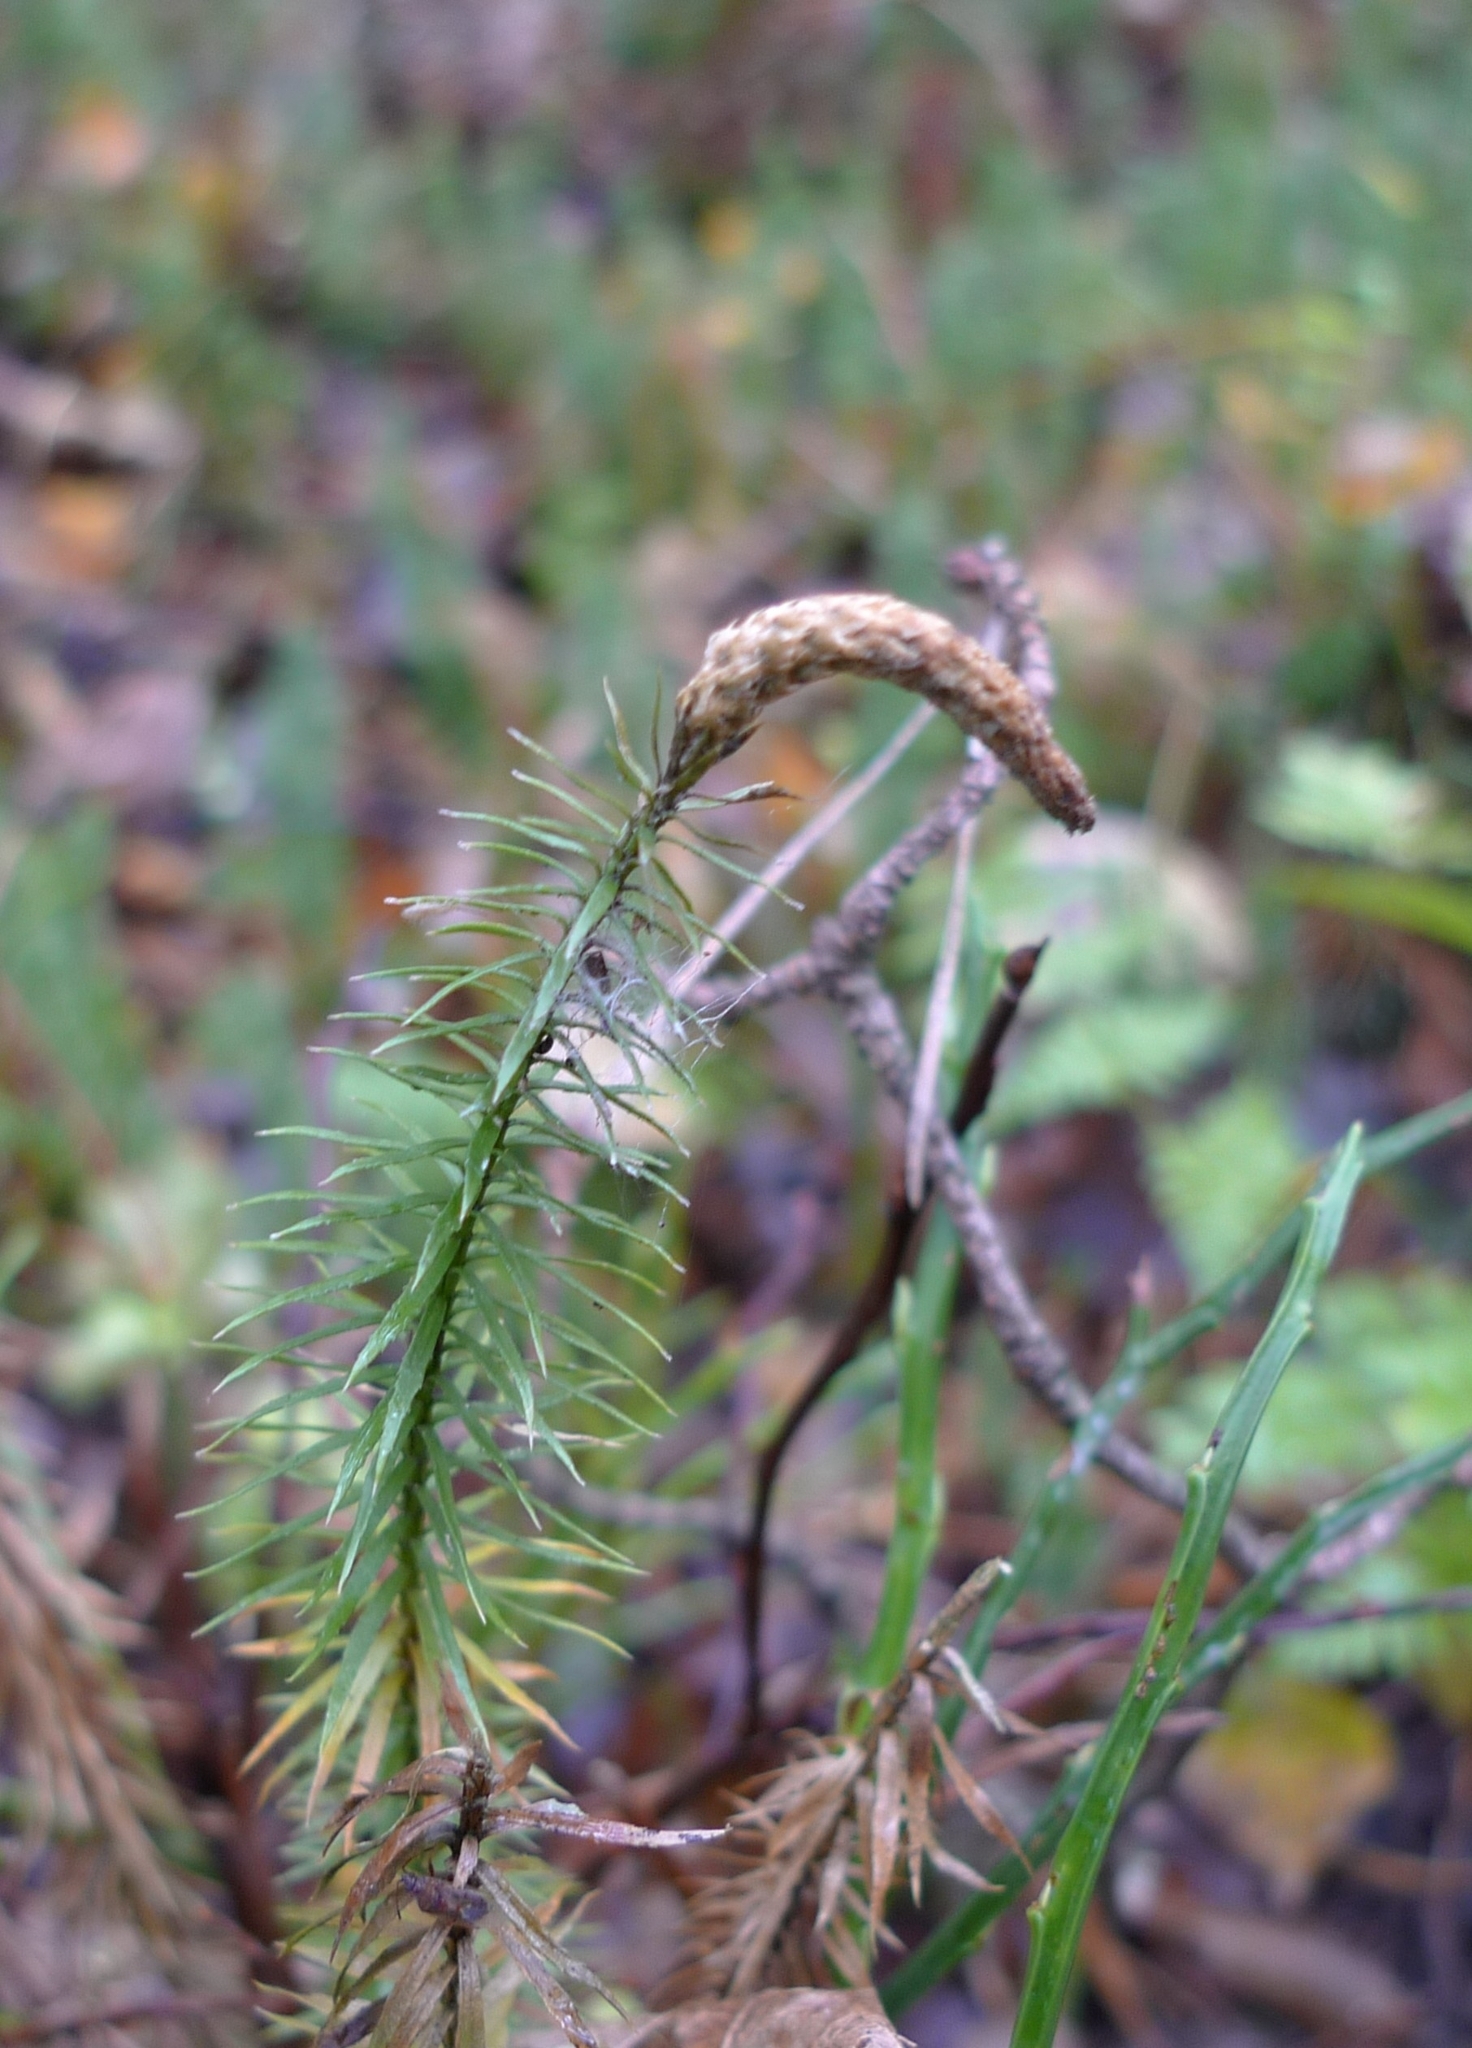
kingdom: Plantae
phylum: Tracheophyta
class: Lycopodiopsida
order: Lycopodiales
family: Lycopodiaceae
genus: Spinulum
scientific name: Spinulum annotinum
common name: Interrupted club-moss
